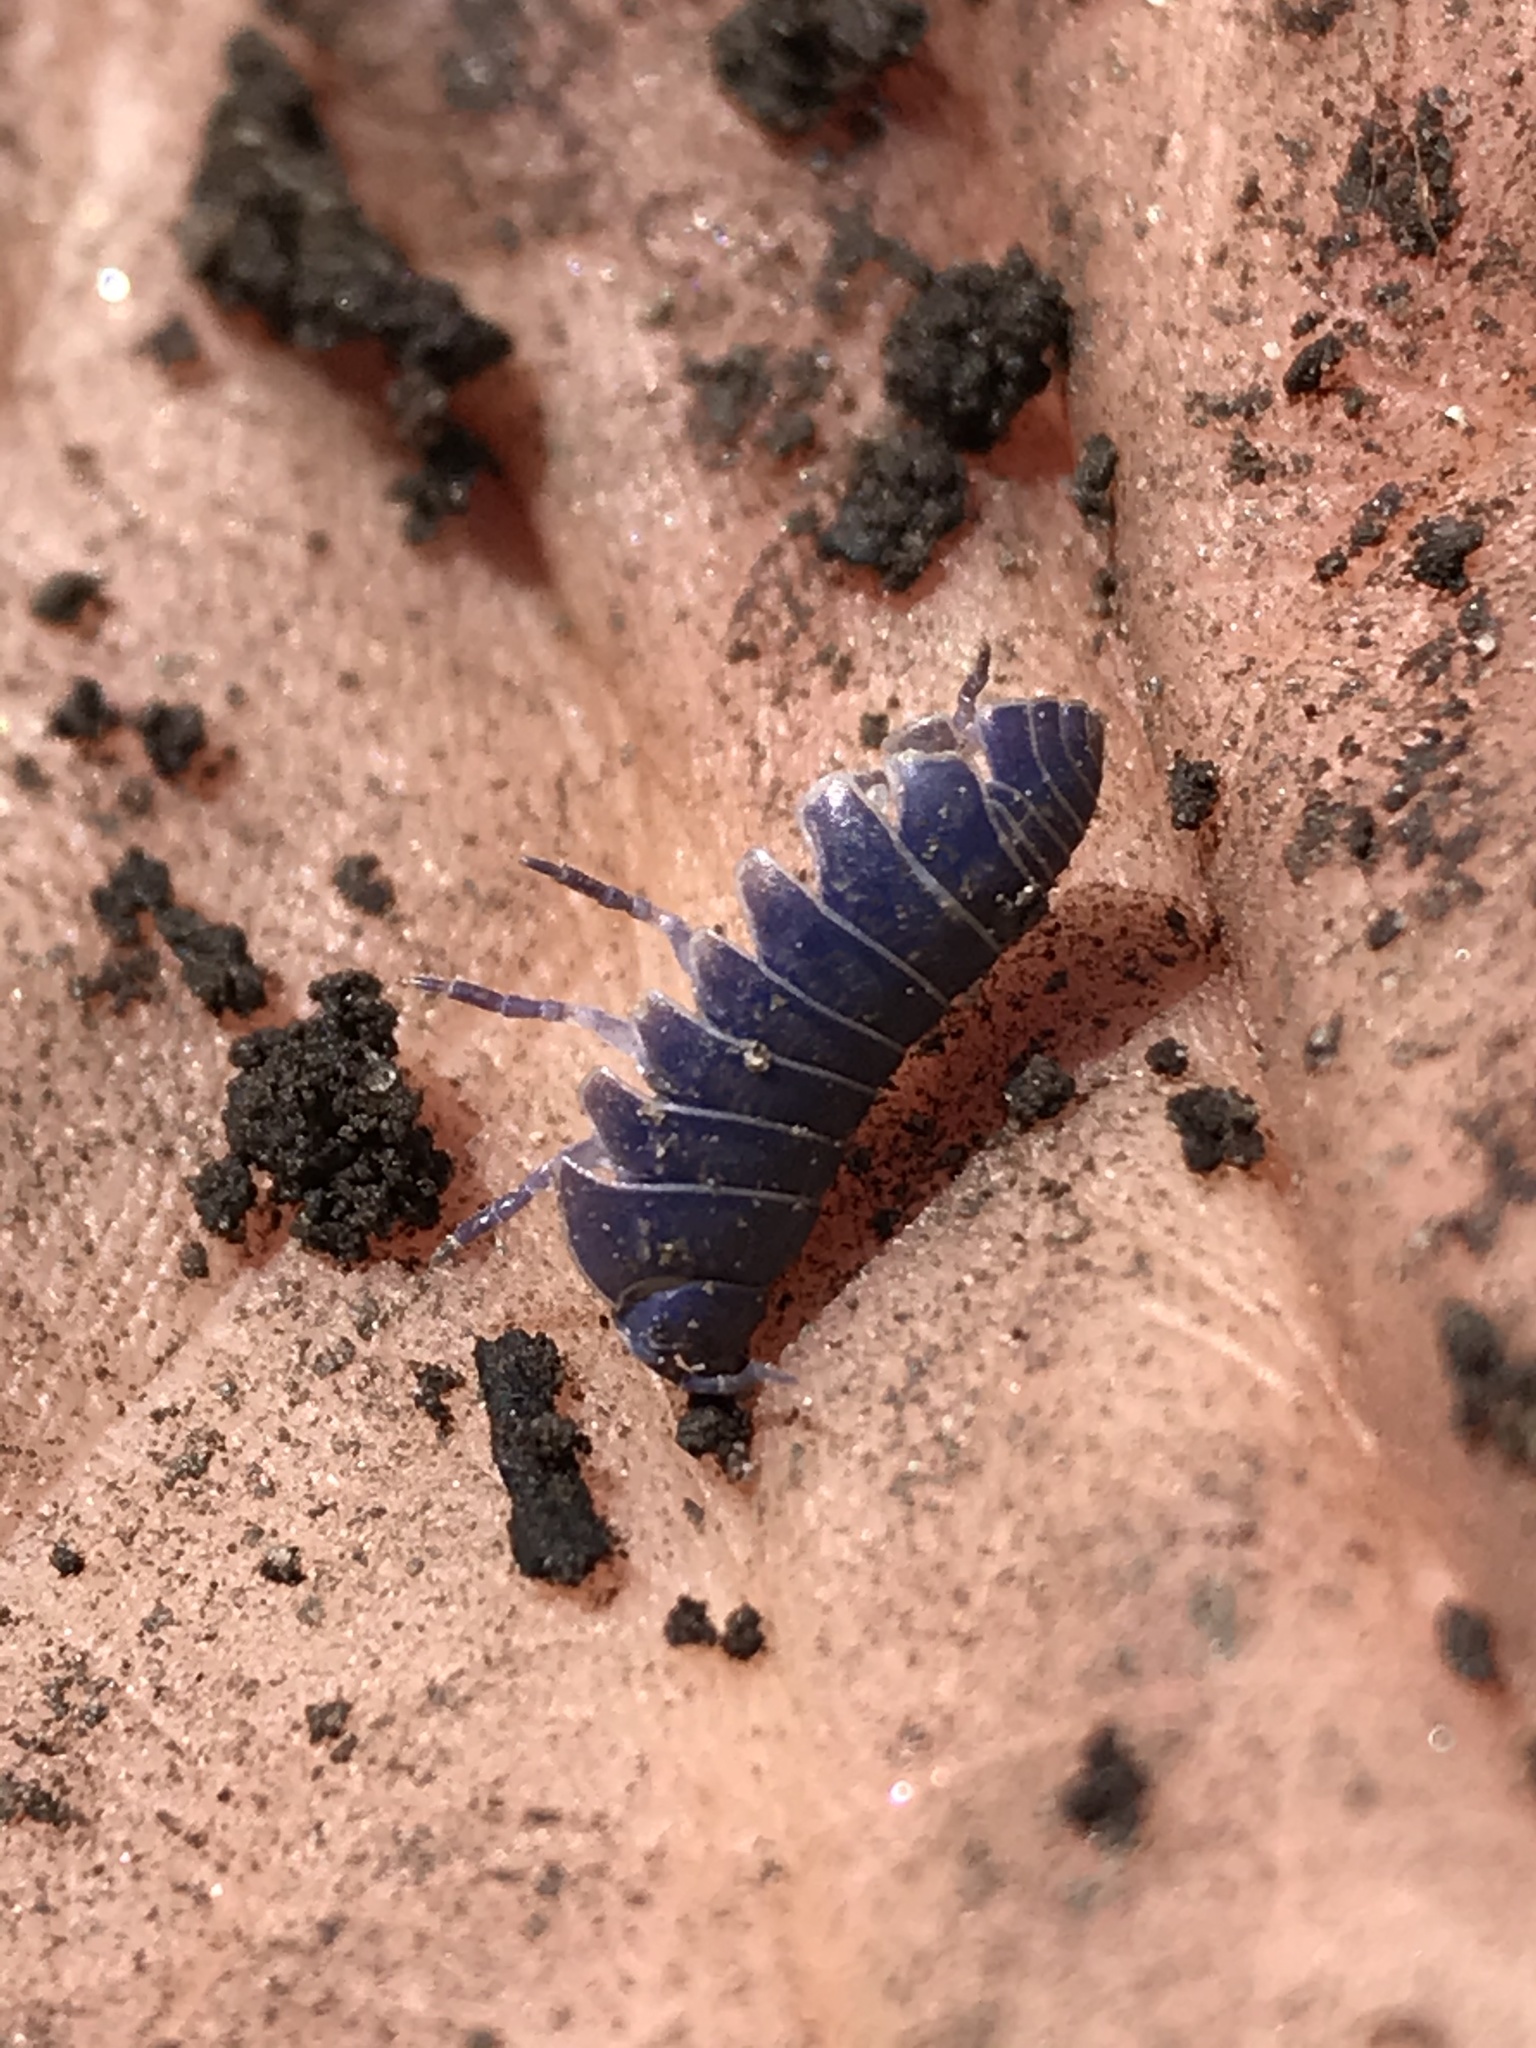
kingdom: Viruses
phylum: Nucleocytoviricota
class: Megaviricetes
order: Pimascovirales
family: Iridoviridae
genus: Iridovirus
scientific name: Iridovirus Invertebrate iridescent virus 31
